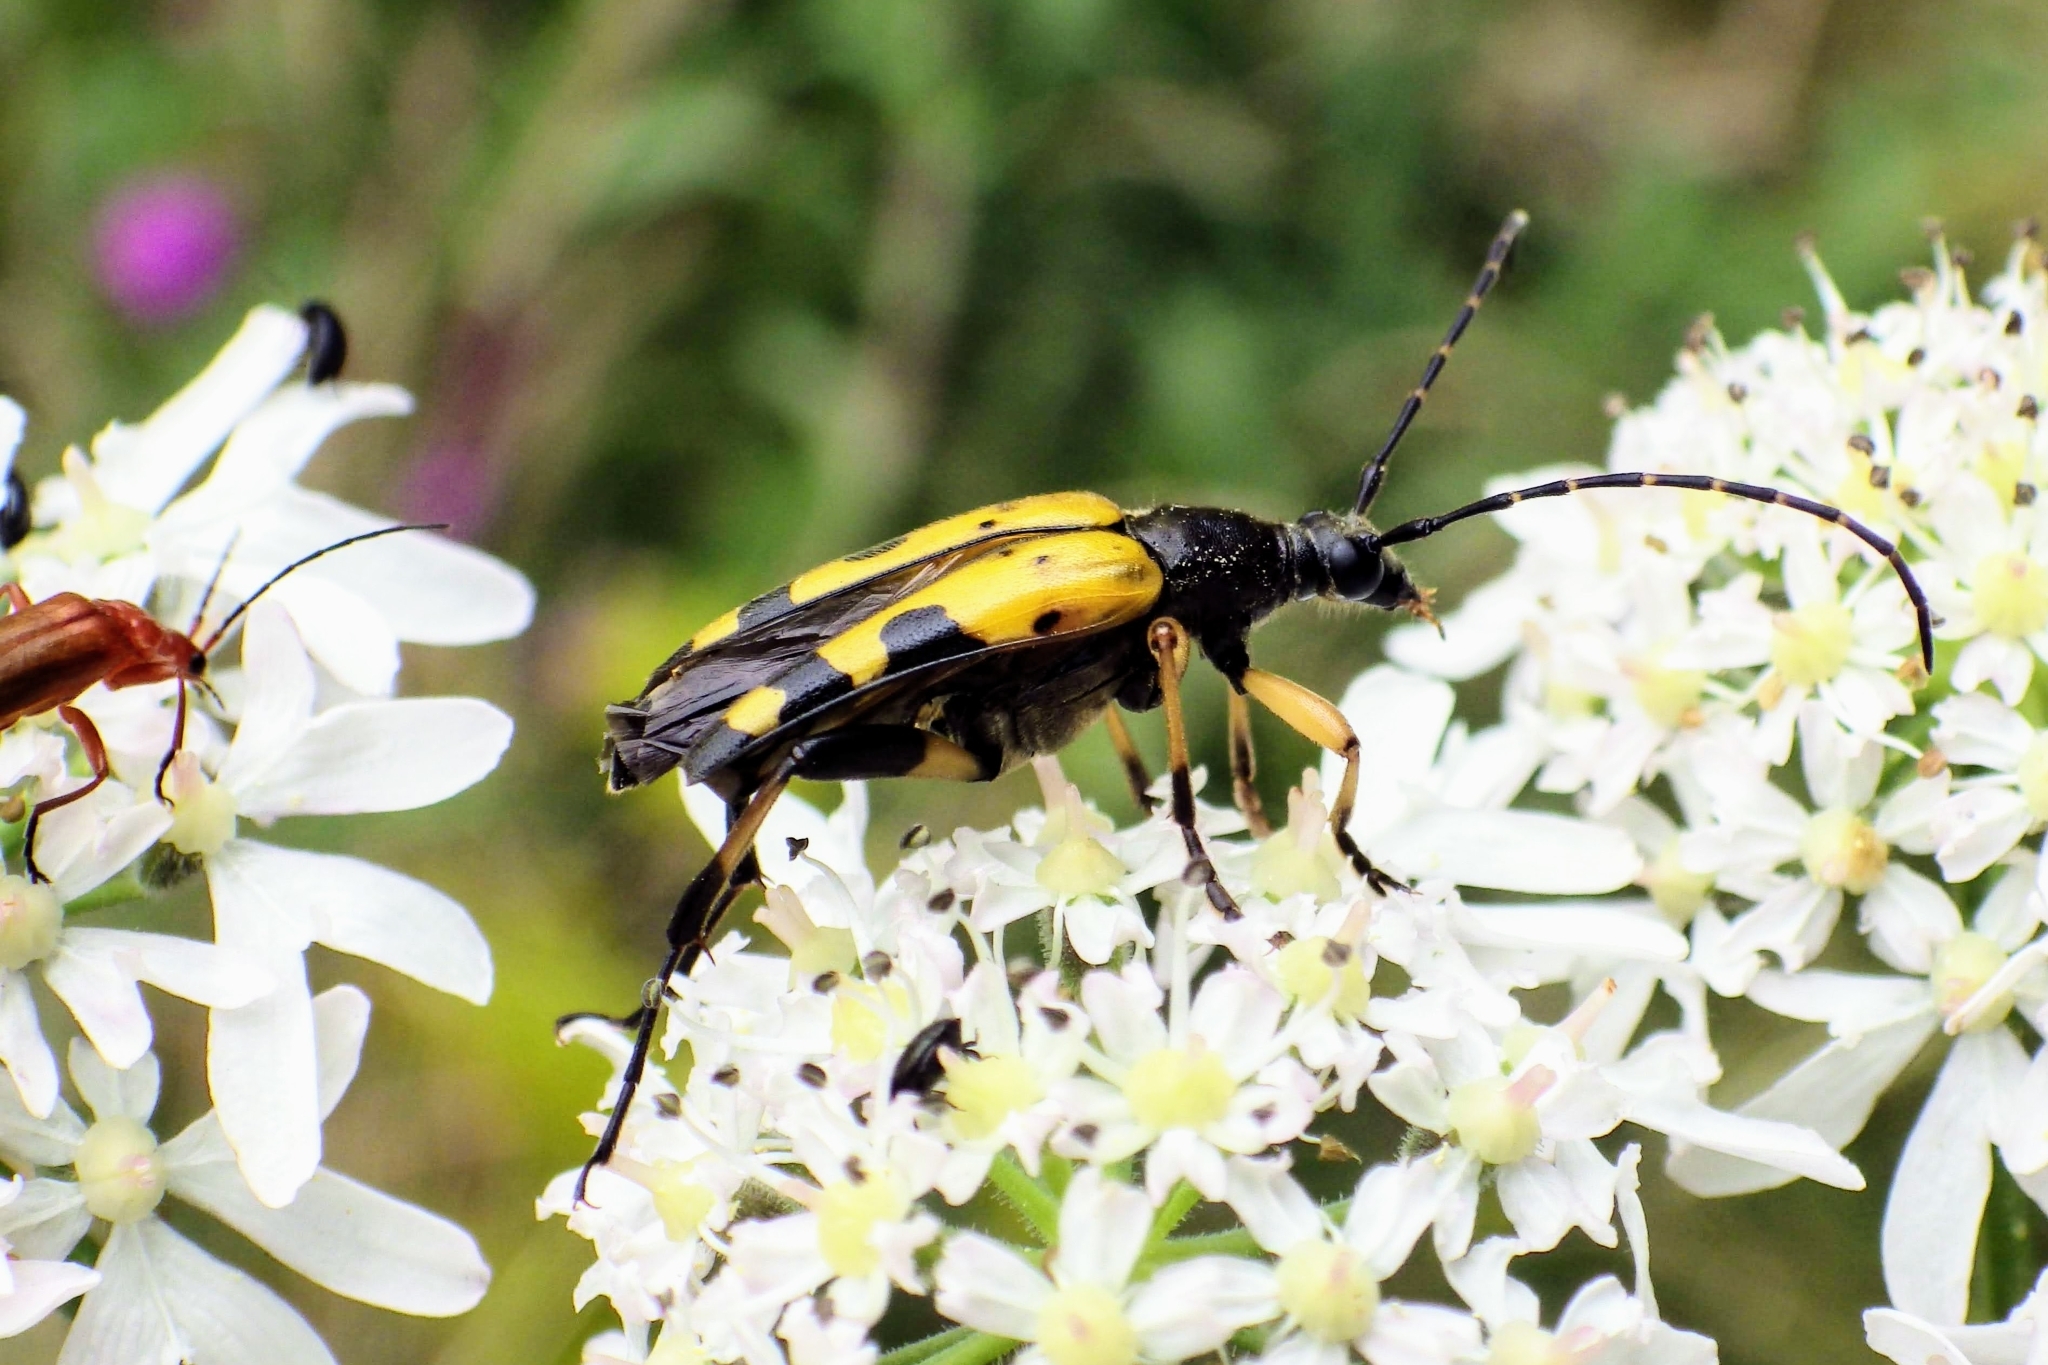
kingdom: Animalia
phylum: Arthropoda
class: Insecta
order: Coleoptera
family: Cerambycidae
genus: Rutpela
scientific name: Rutpela maculata
